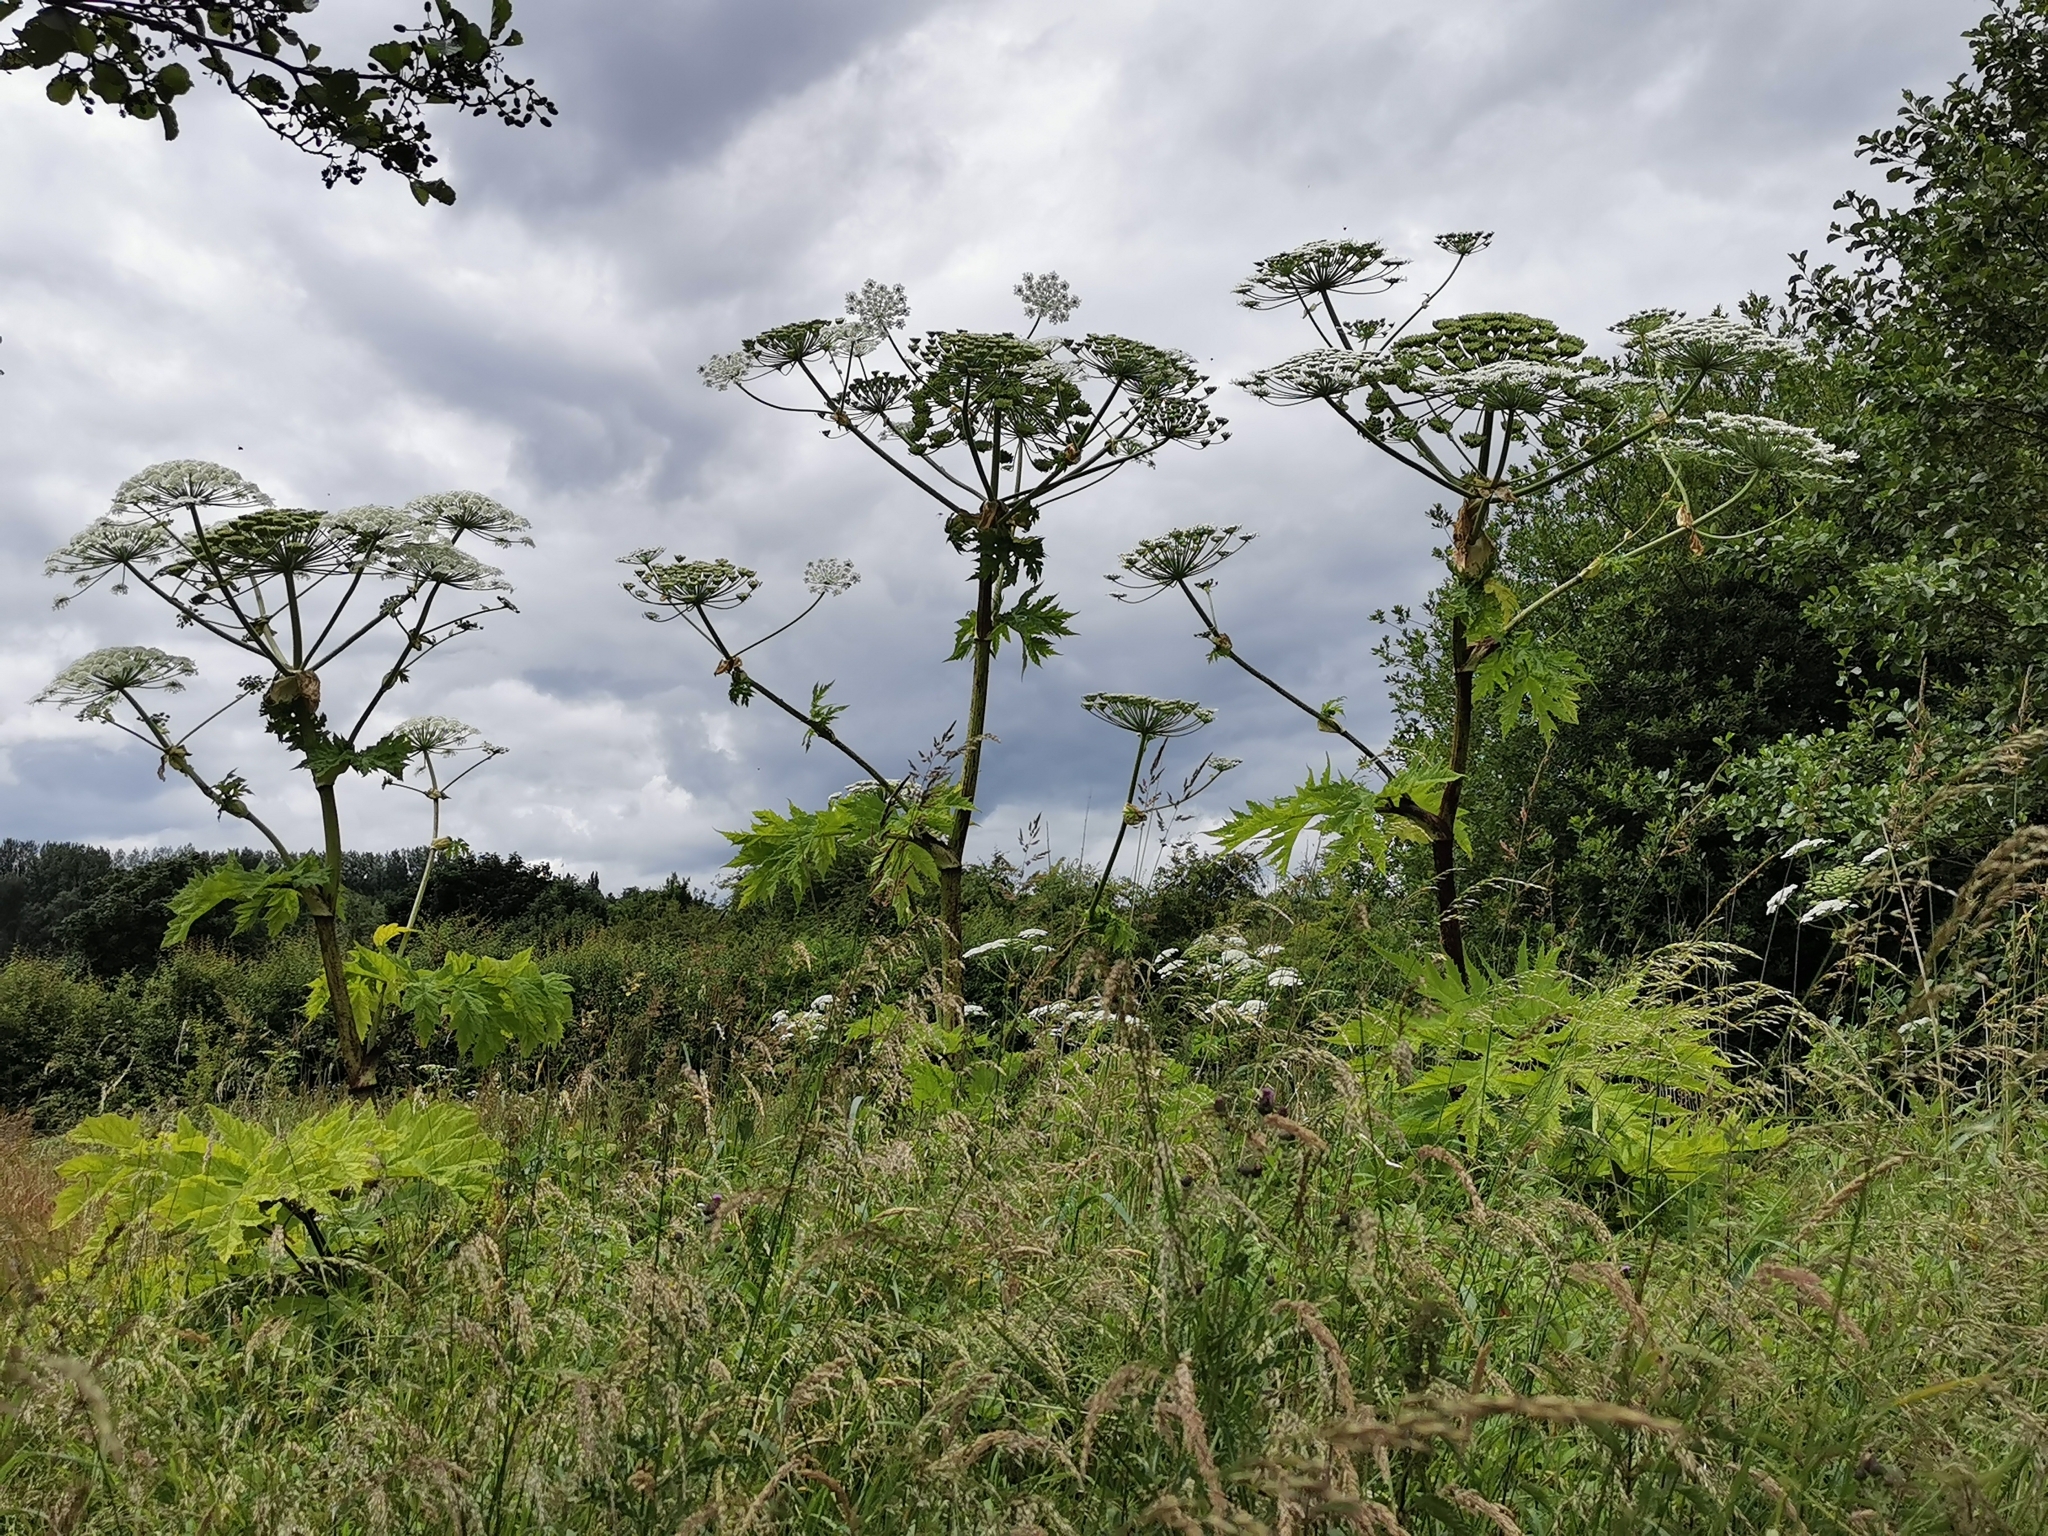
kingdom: Plantae
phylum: Tracheophyta
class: Magnoliopsida
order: Apiales
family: Apiaceae
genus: Heracleum
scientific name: Heracleum mantegazzianum
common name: Giant hogweed
